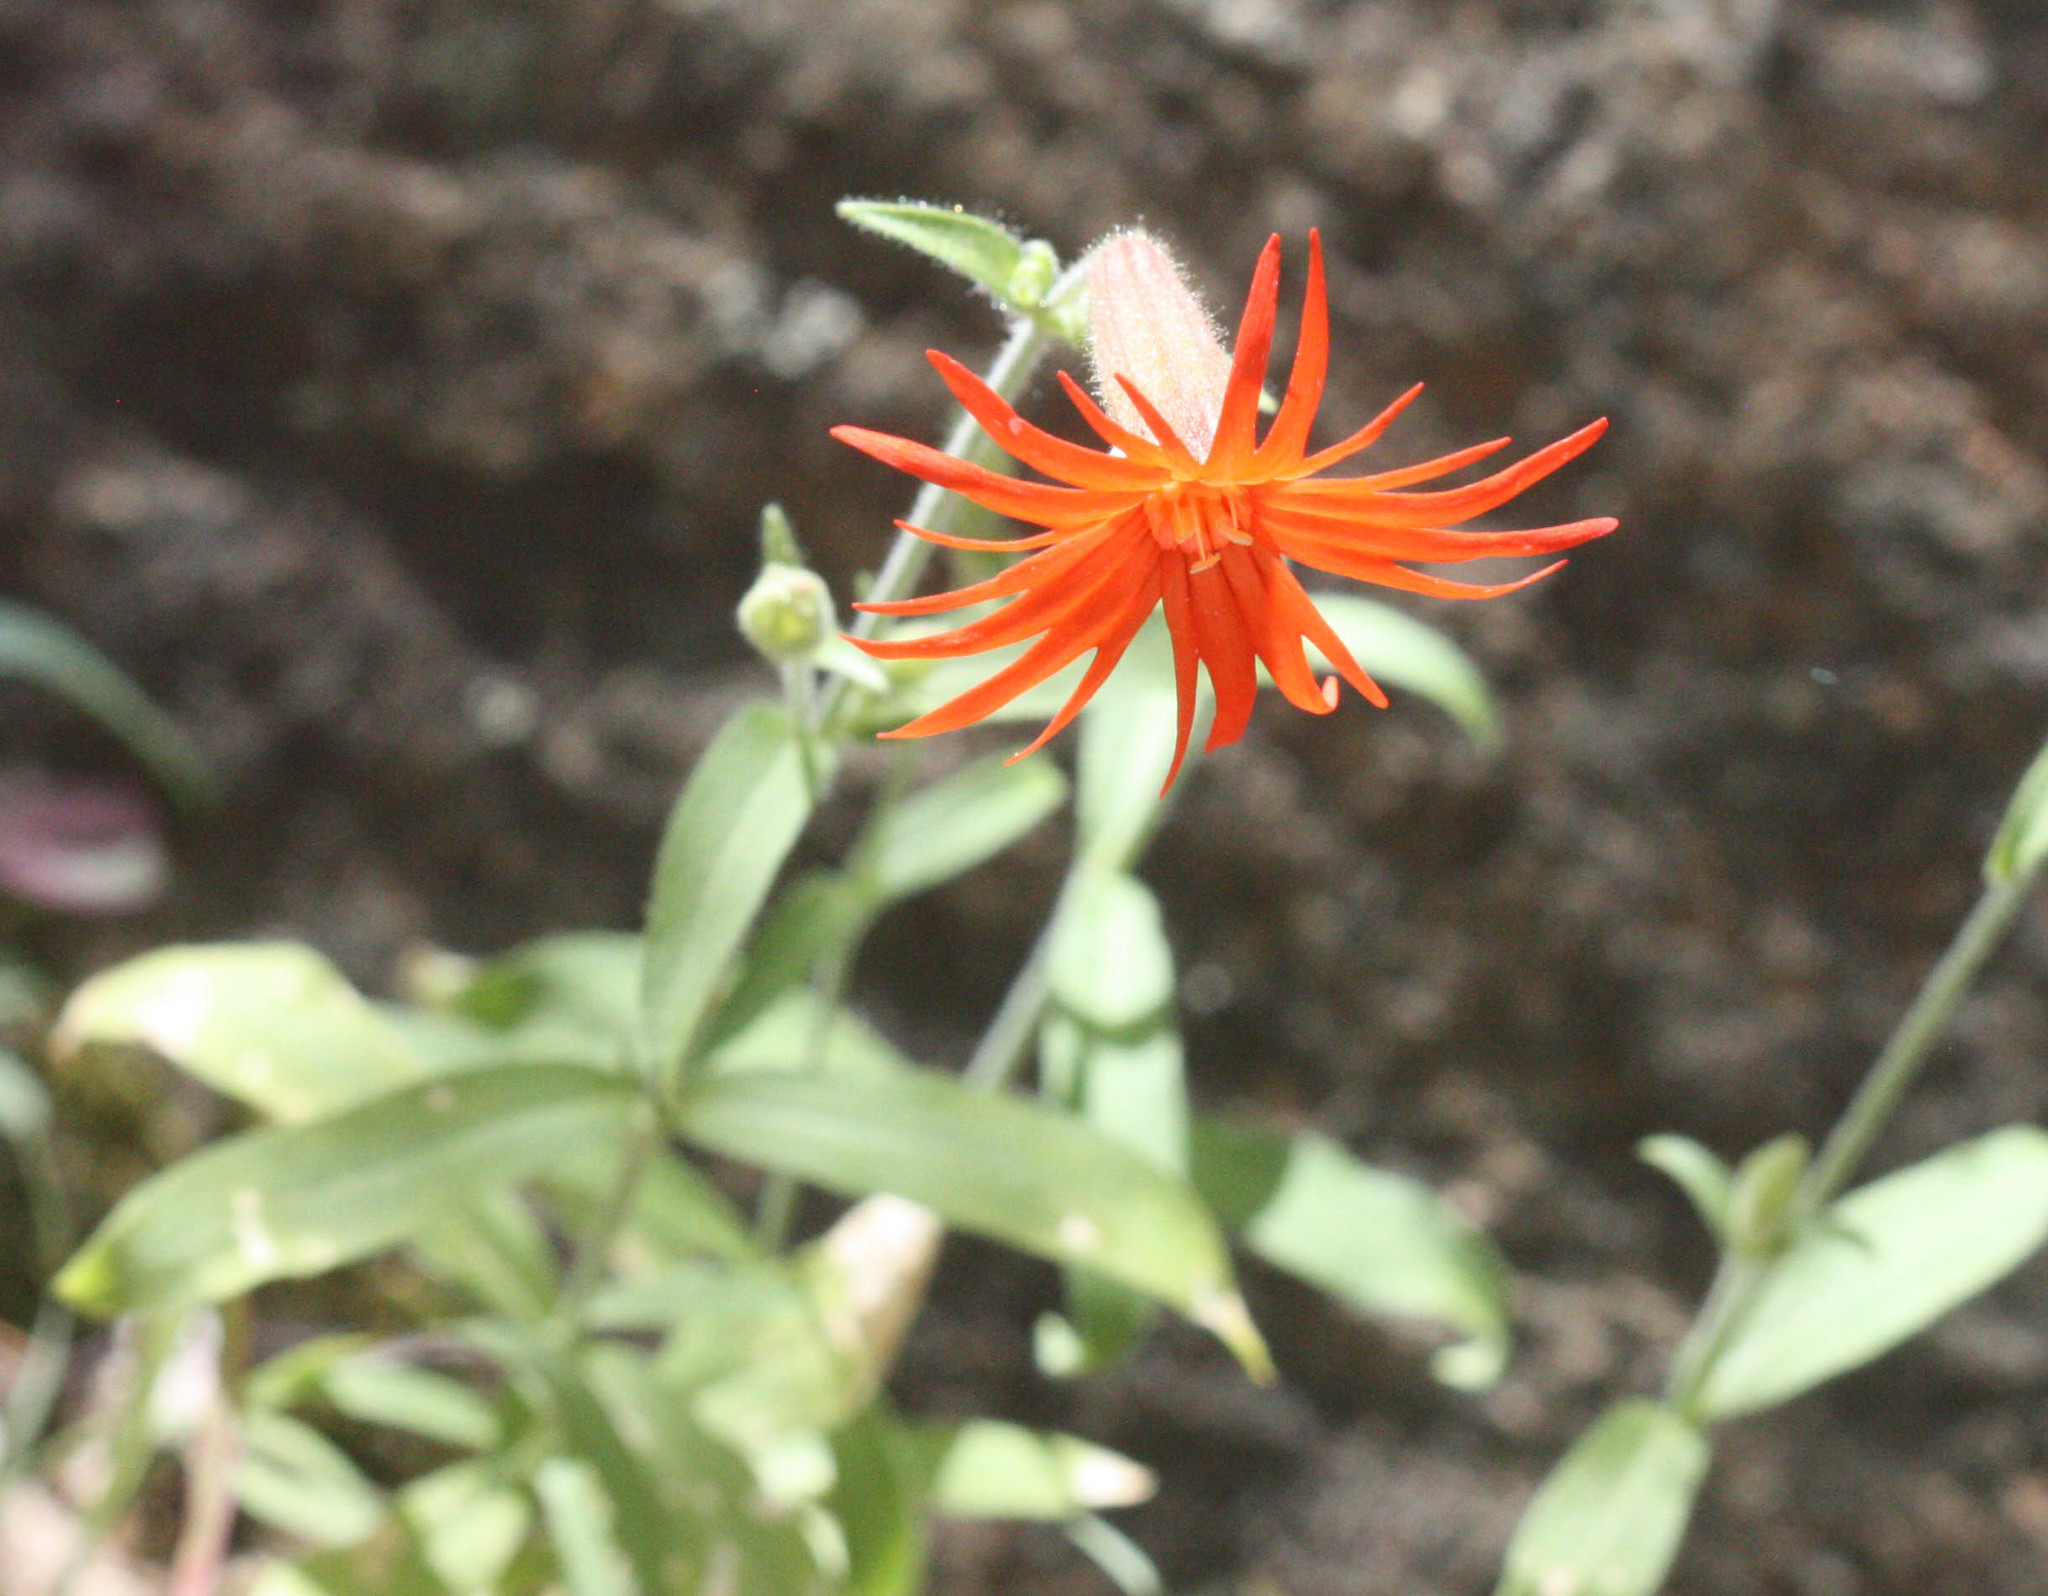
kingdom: Plantae
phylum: Tracheophyta
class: Magnoliopsida
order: Caryophyllales
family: Caryophyllaceae
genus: Silene
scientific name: Silene laciniata
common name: Indian-pink
